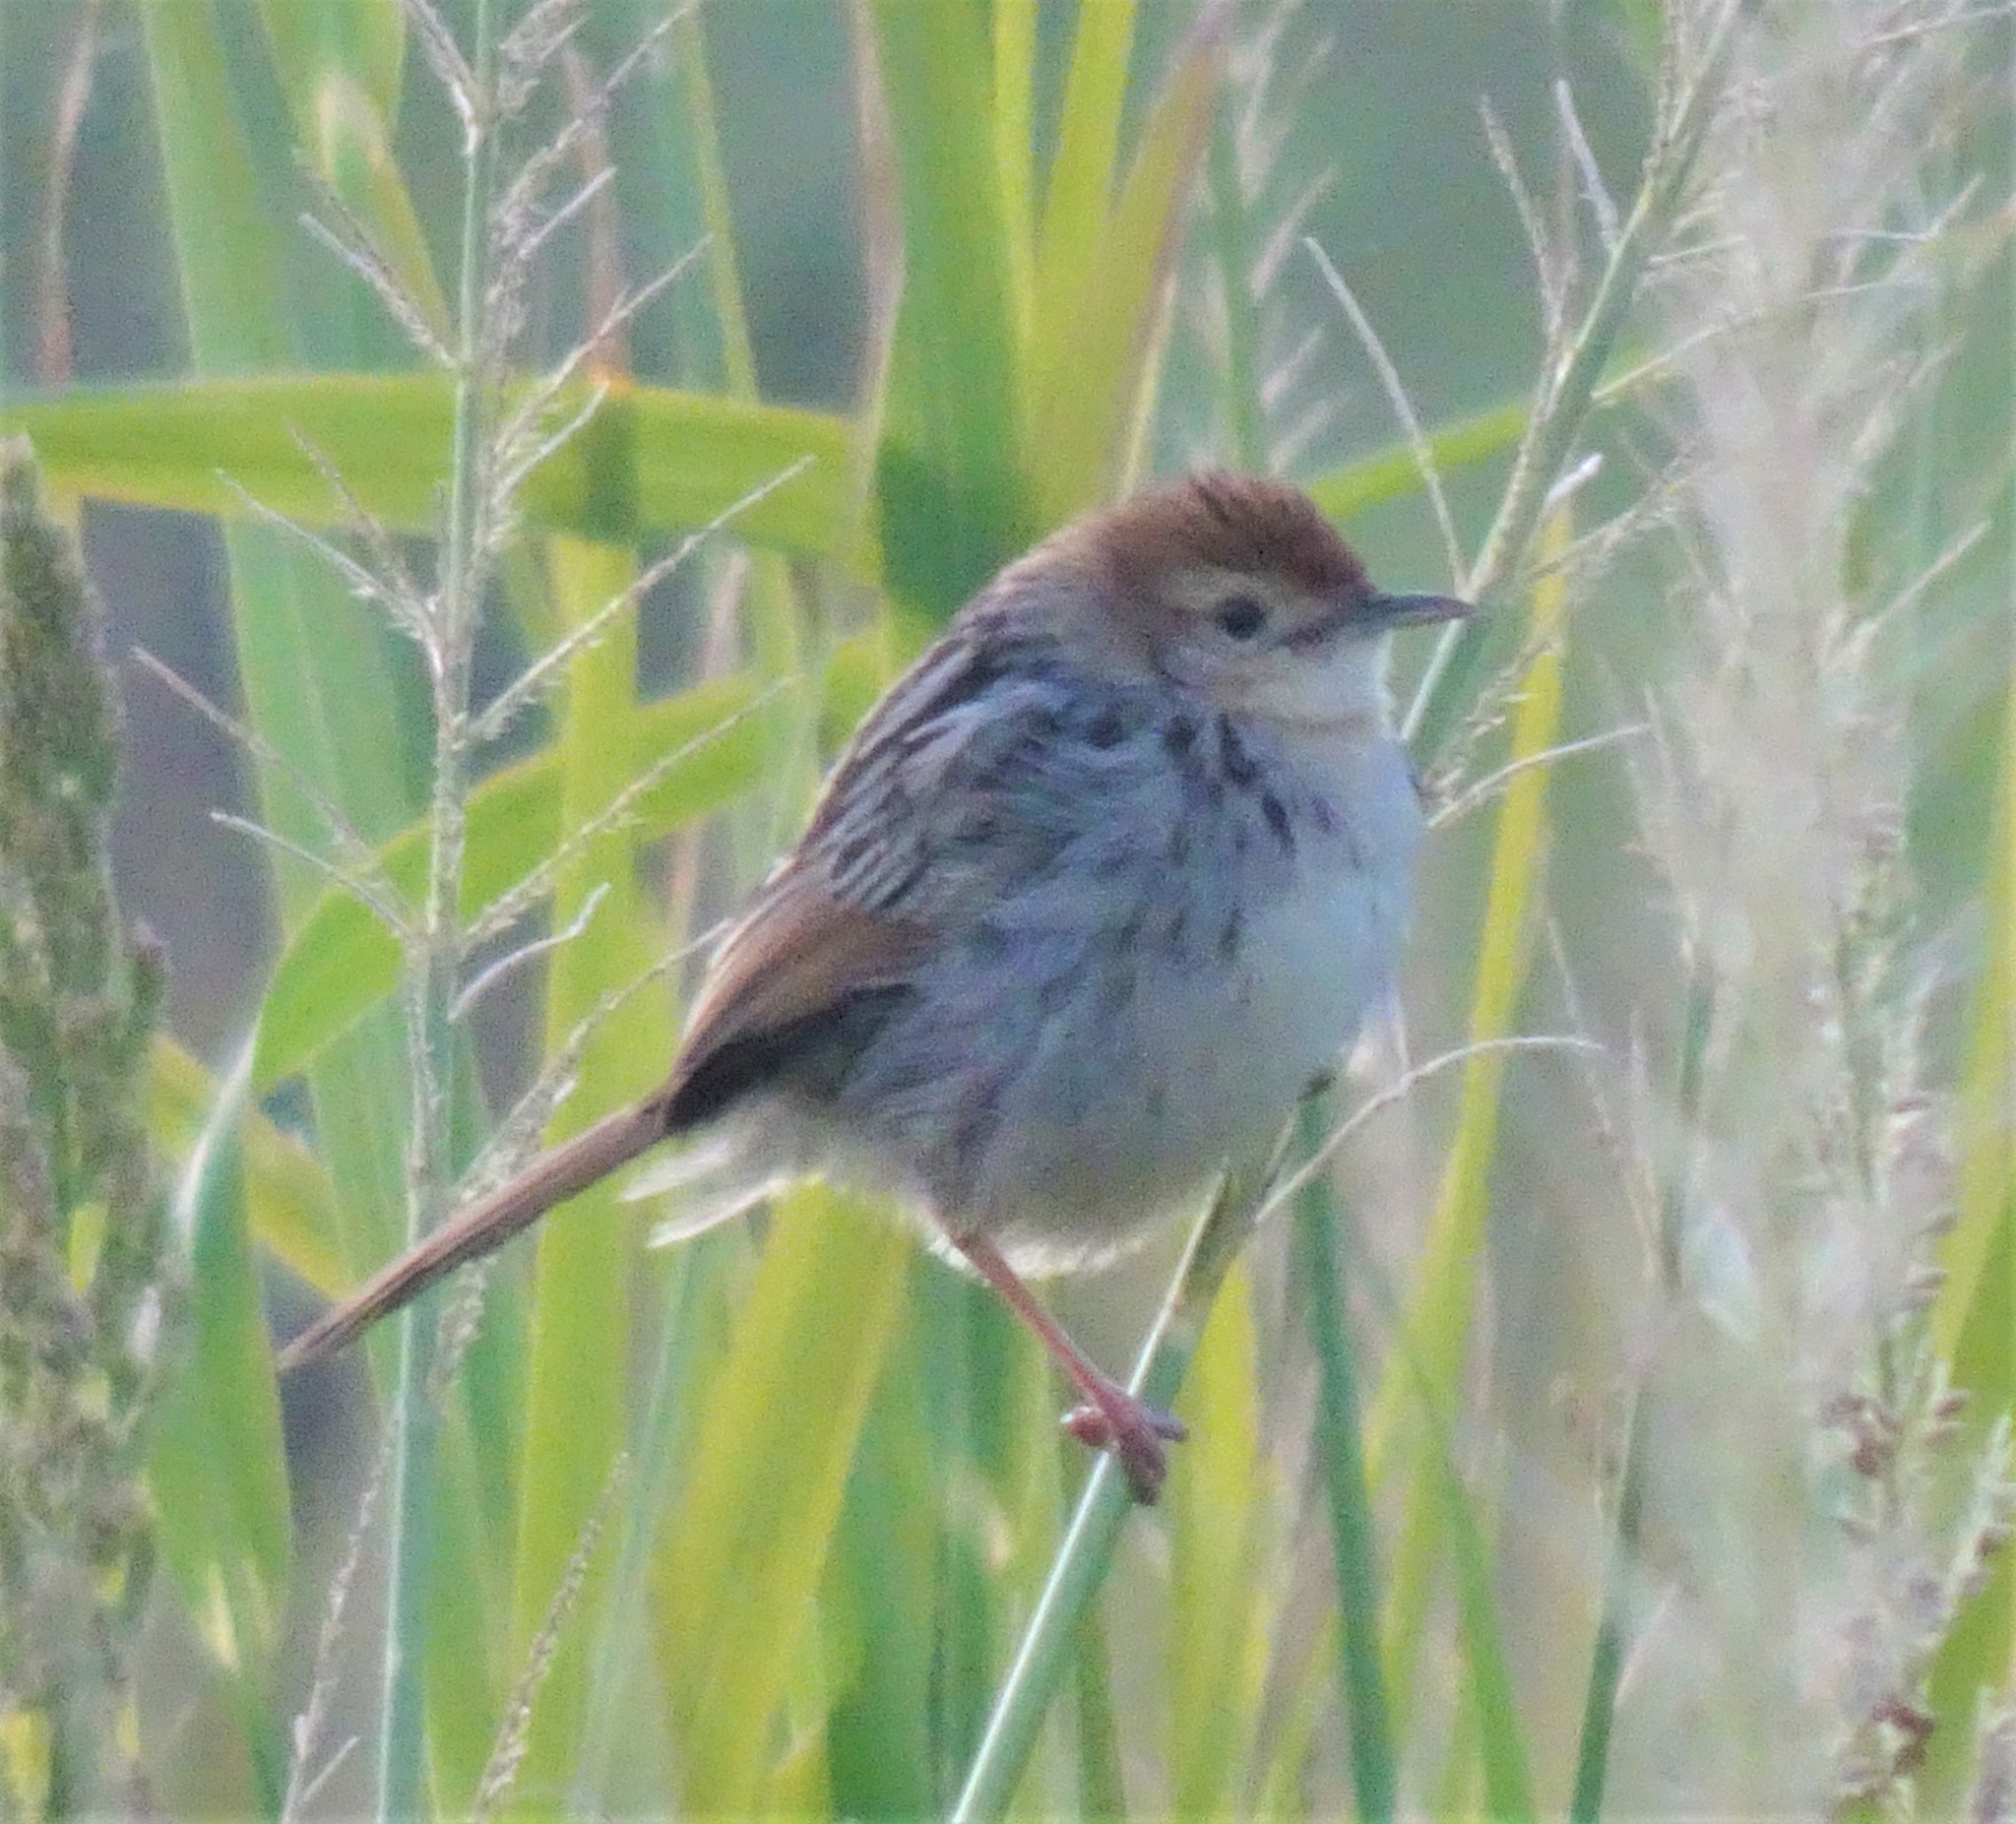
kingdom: Animalia
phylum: Chordata
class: Aves
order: Passeriformes
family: Cisticolidae
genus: Cisticola
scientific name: Cisticola tinniens
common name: Levaillant's cisticola
